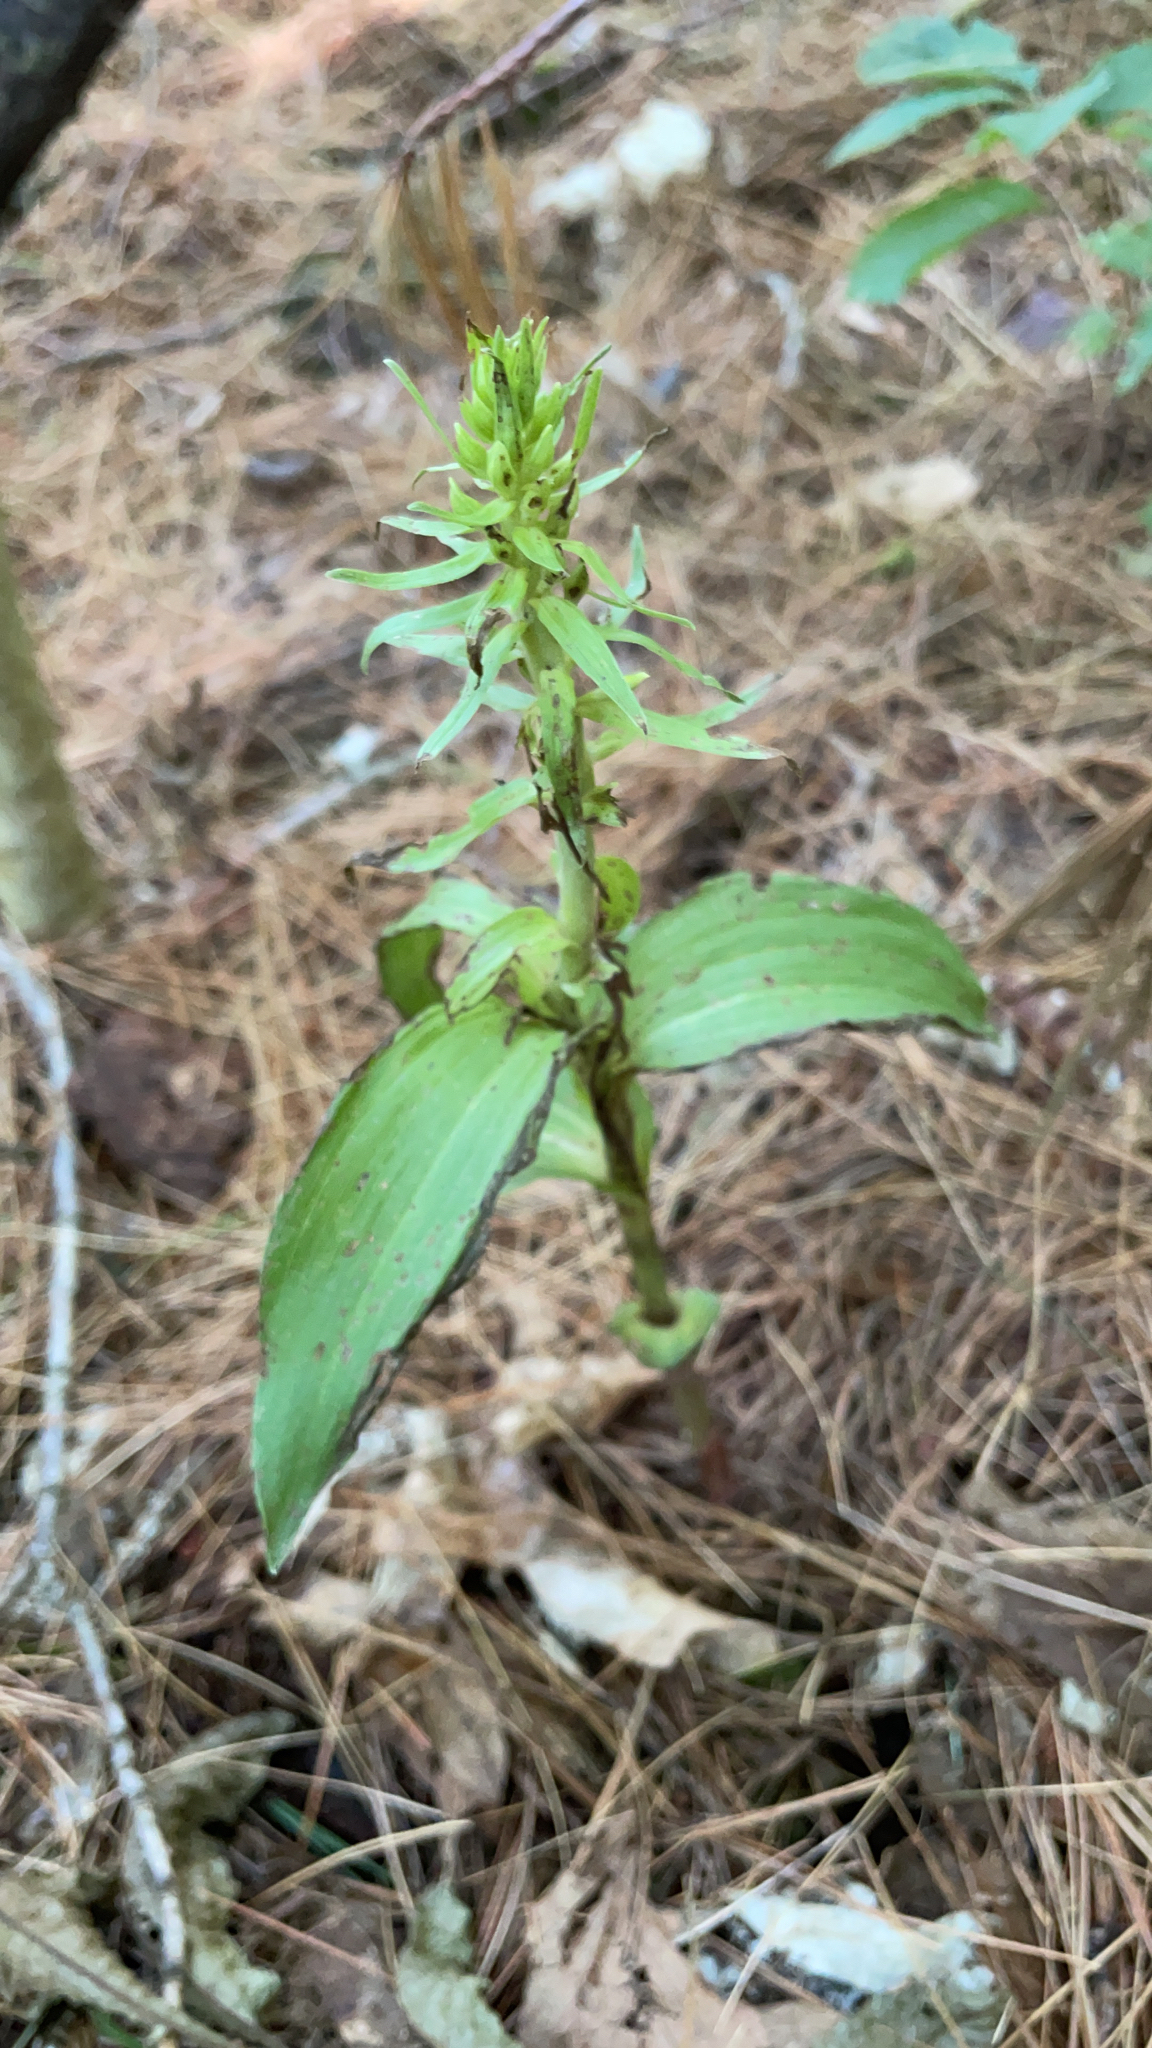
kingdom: Plantae
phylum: Tracheophyta
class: Liliopsida
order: Asparagales
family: Orchidaceae
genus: Epipactis
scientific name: Epipactis helleborine
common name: Broad-leaved helleborine
